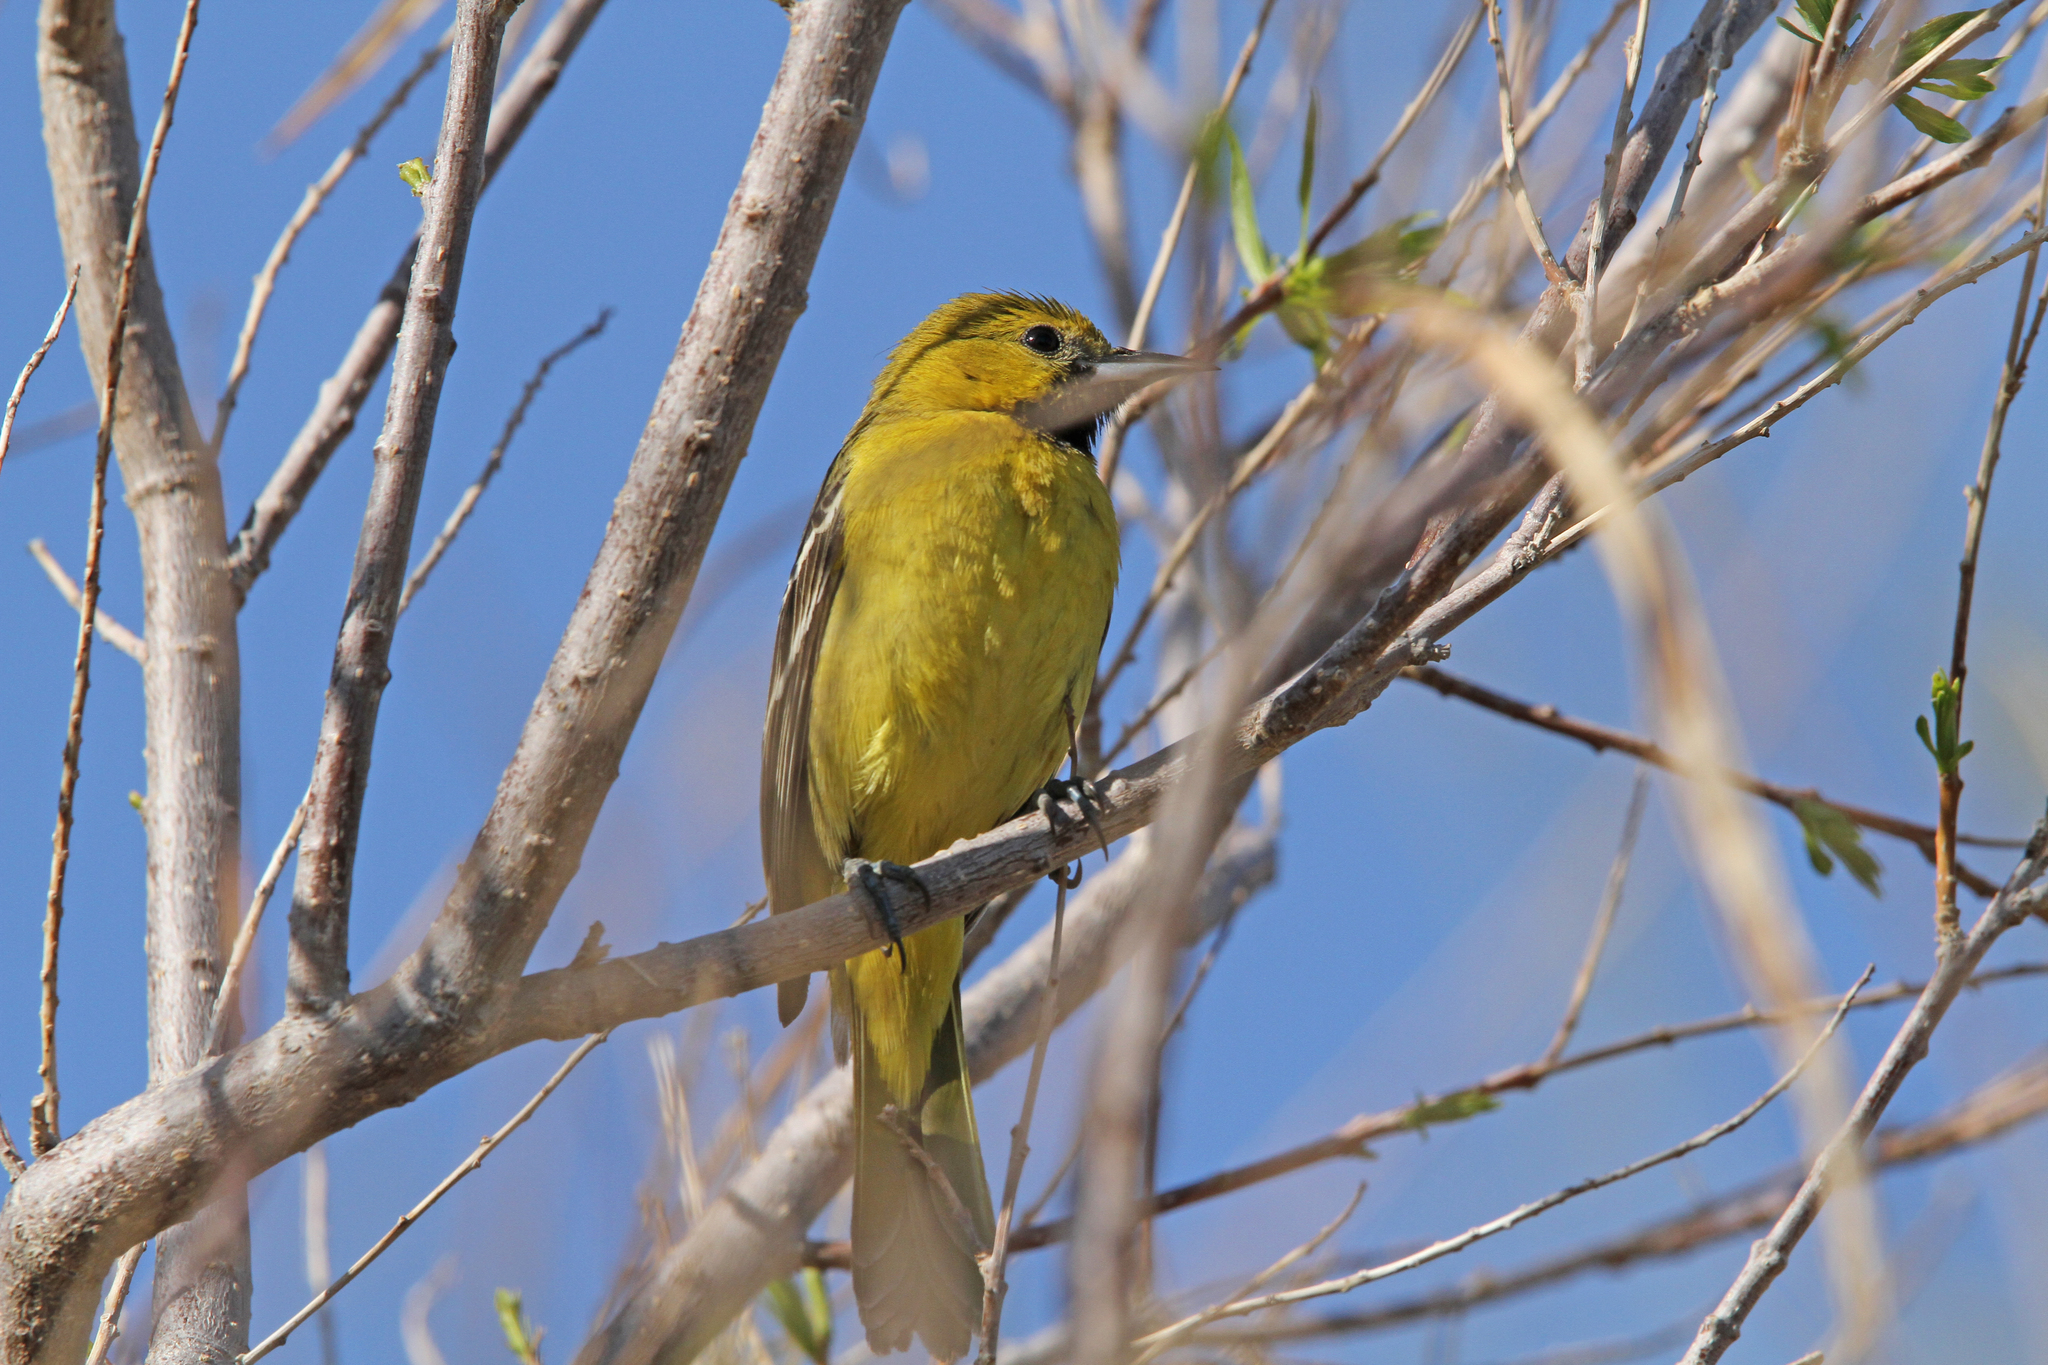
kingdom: Animalia
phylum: Chordata
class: Aves
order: Passeriformes
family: Icteridae
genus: Icterus
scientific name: Icterus cucullatus
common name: Hooded oriole
